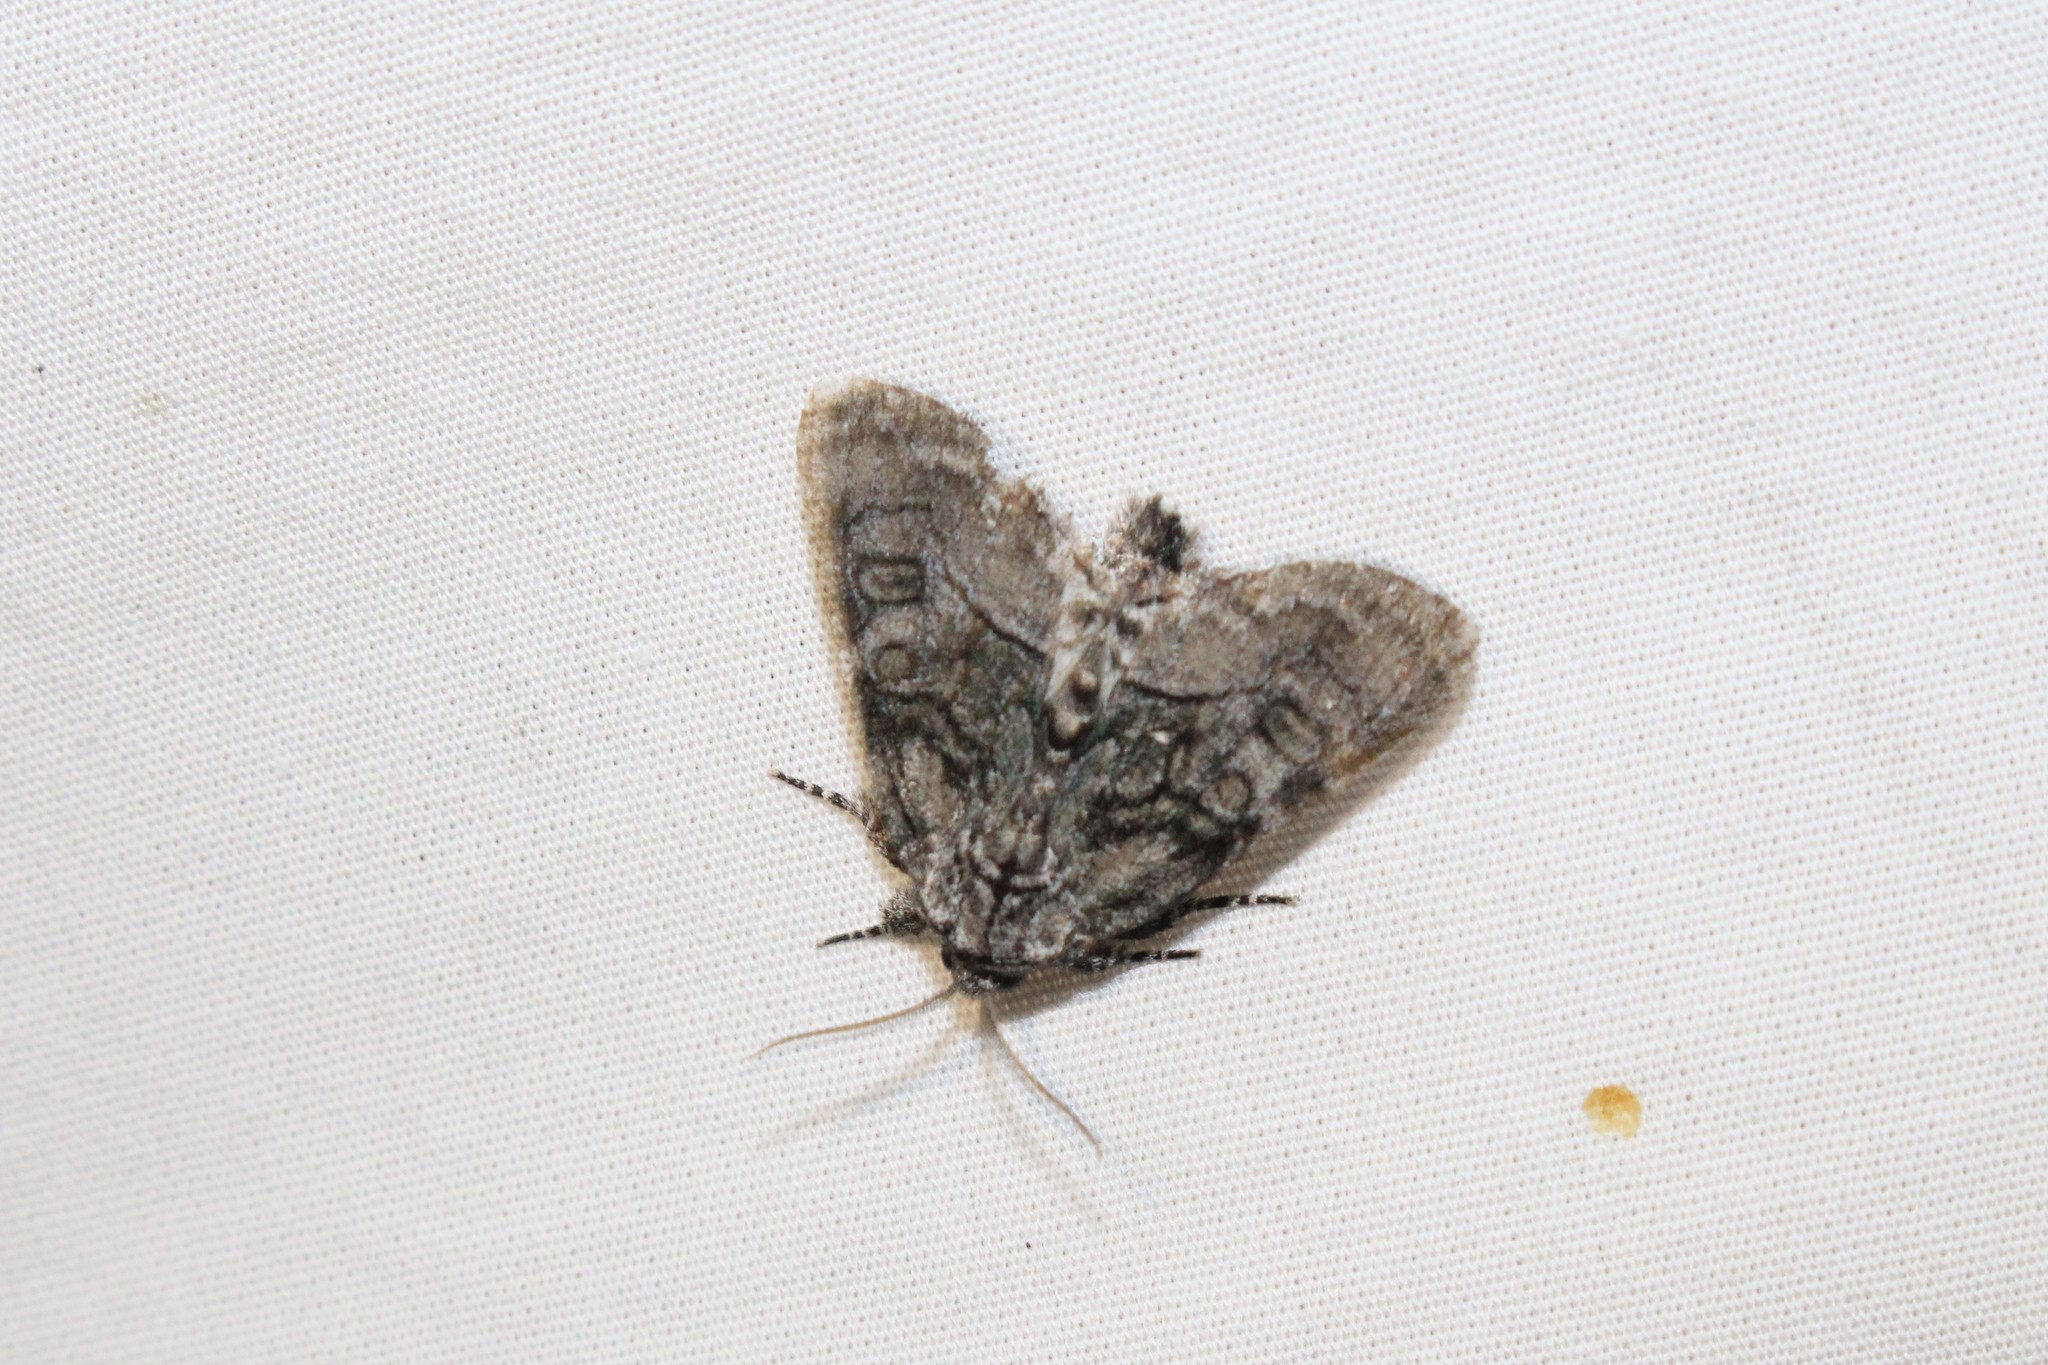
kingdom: Animalia
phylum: Arthropoda
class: Insecta
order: Lepidoptera
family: Noctuidae
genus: Raphia
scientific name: Raphia frater
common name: Brother
